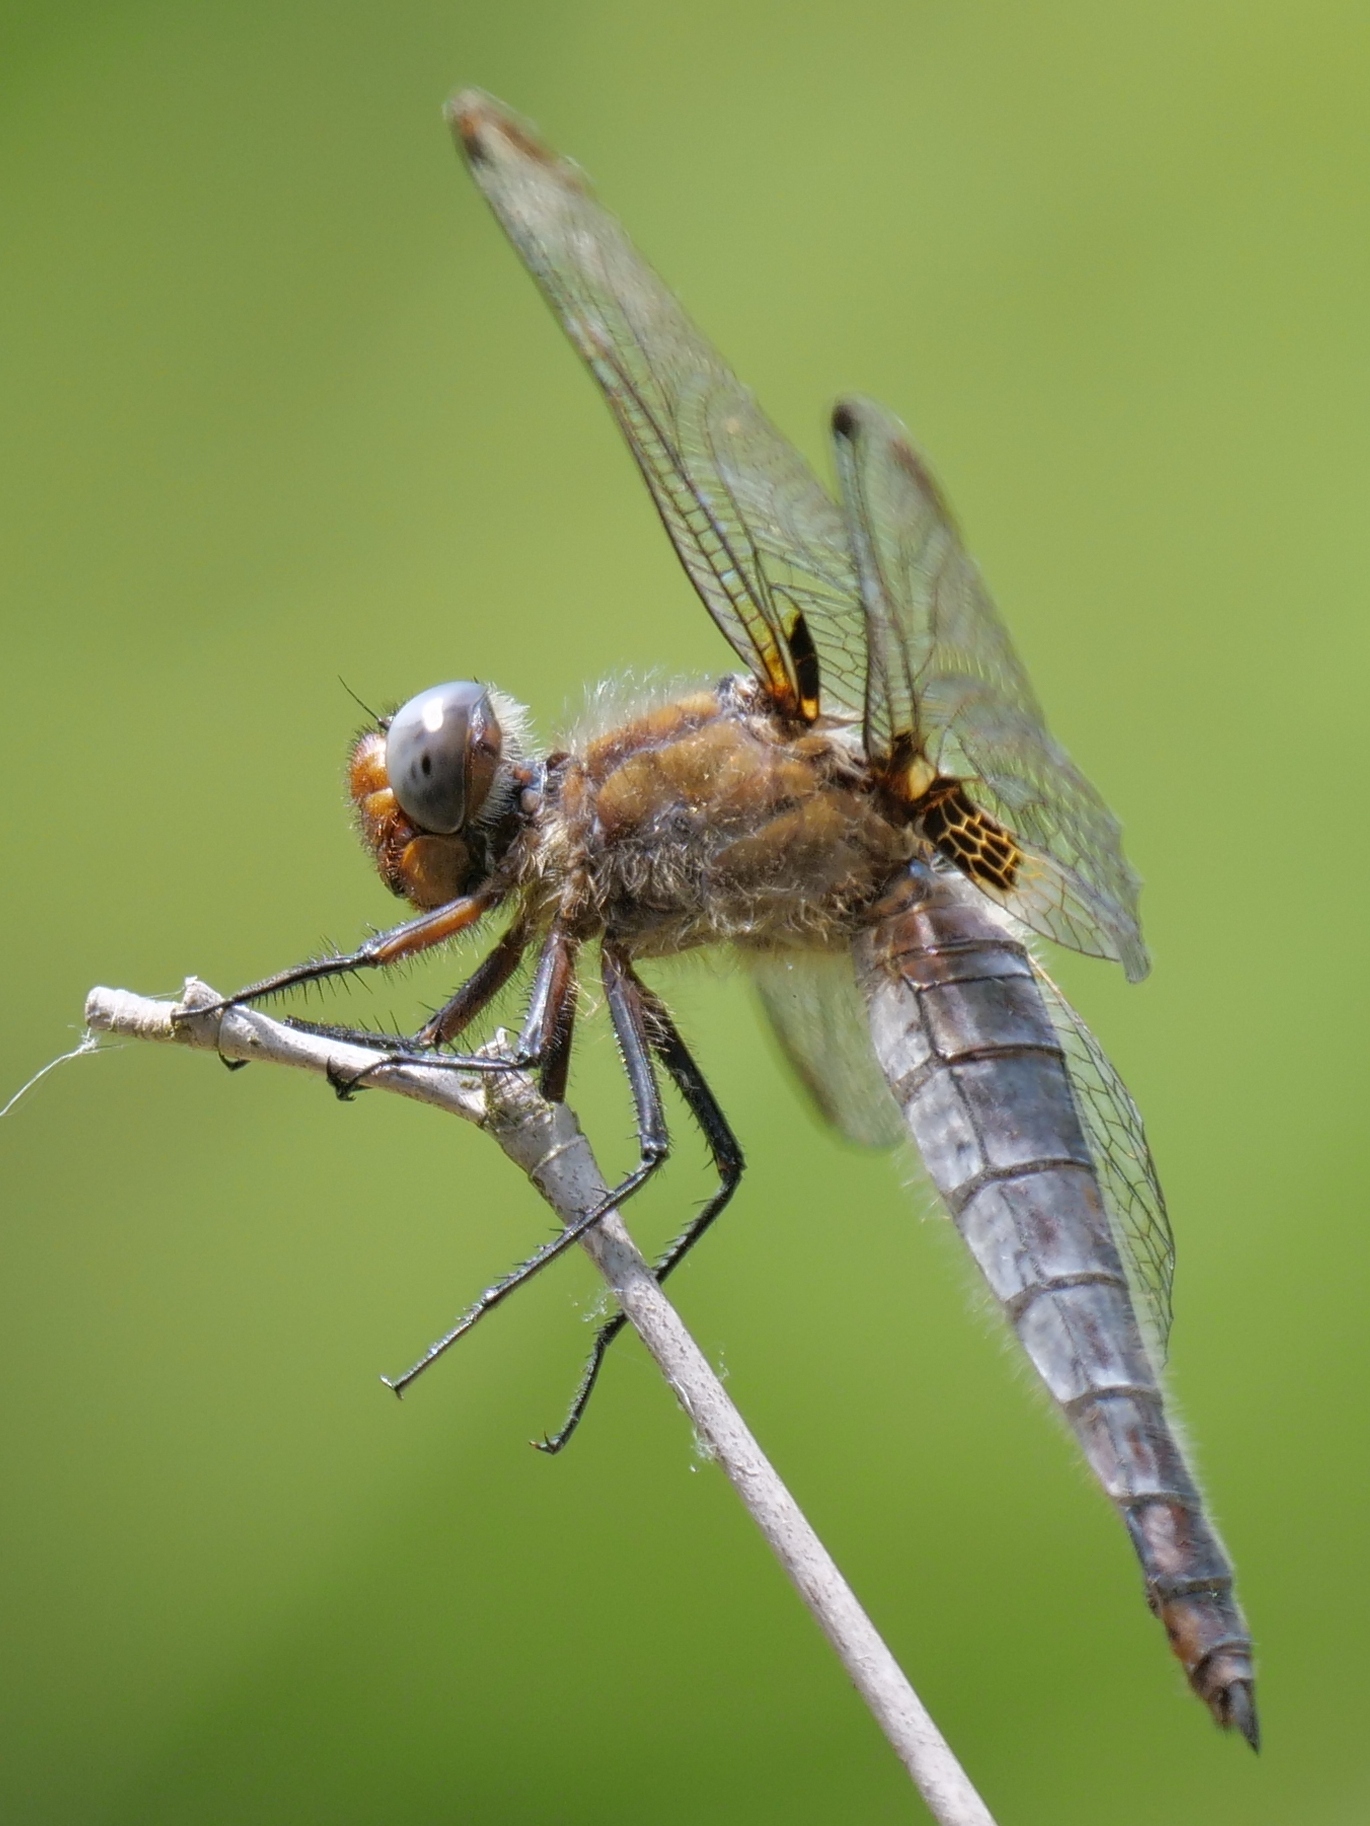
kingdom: Animalia
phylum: Arthropoda
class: Insecta
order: Odonata
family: Libellulidae
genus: Libellula
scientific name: Libellula fulva
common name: Blue chaser
